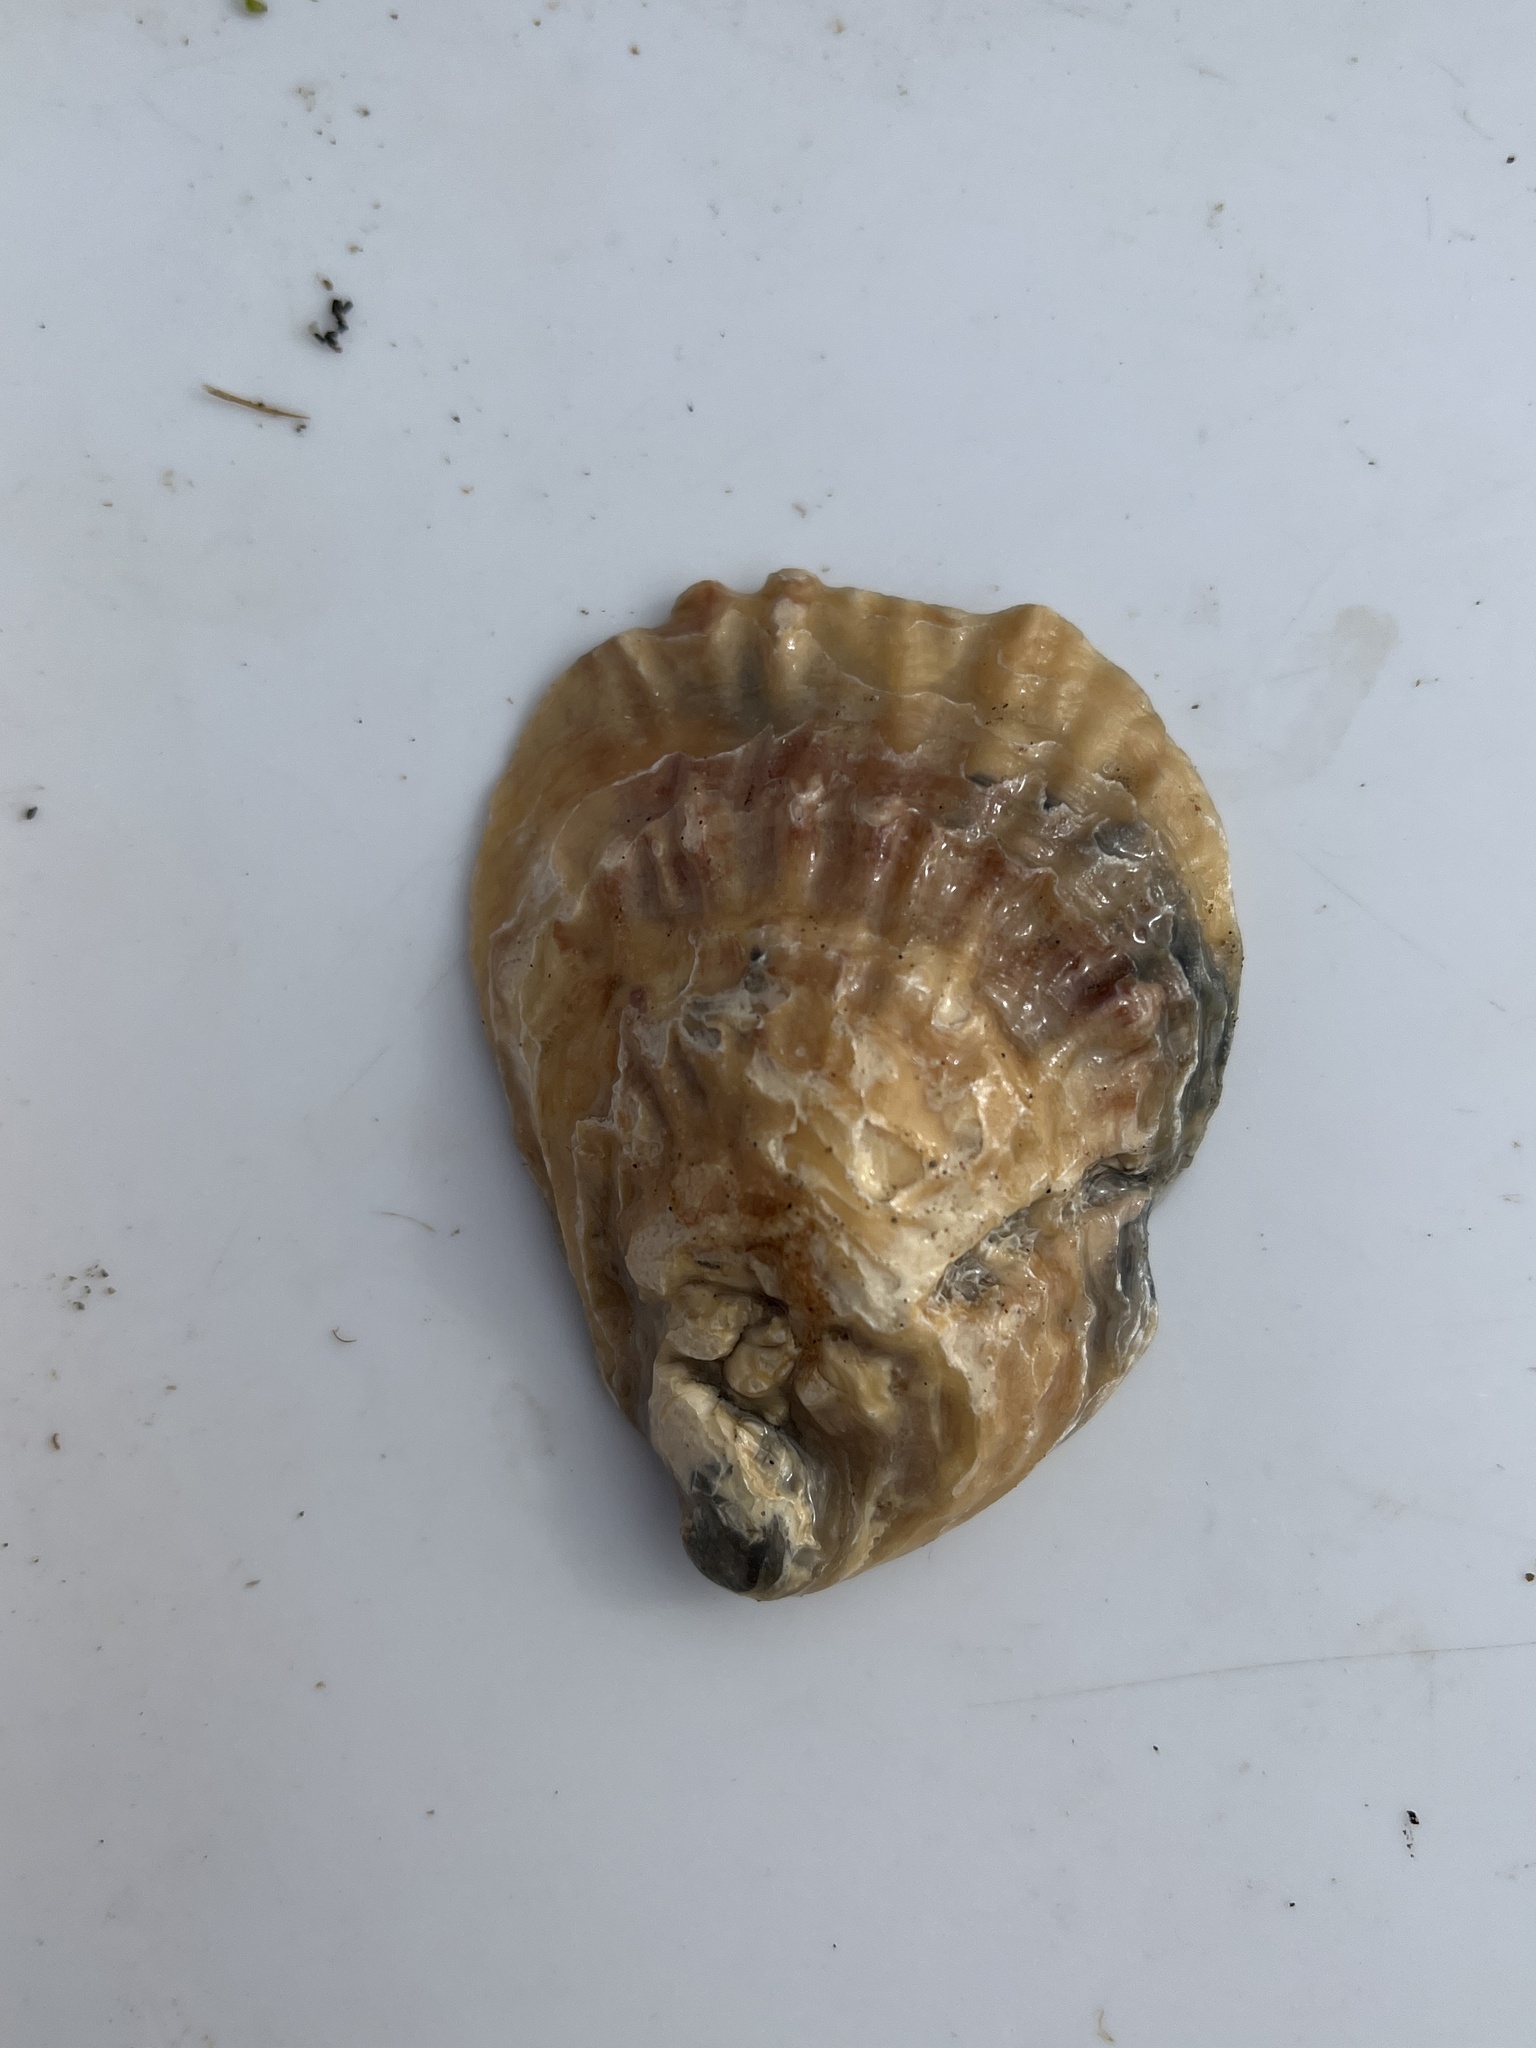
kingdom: Animalia
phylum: Mollusca
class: Bivalvia
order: Ostreida
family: Ostreidae
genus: Ostrea
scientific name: Ostrea edulis
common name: Flat oyster
